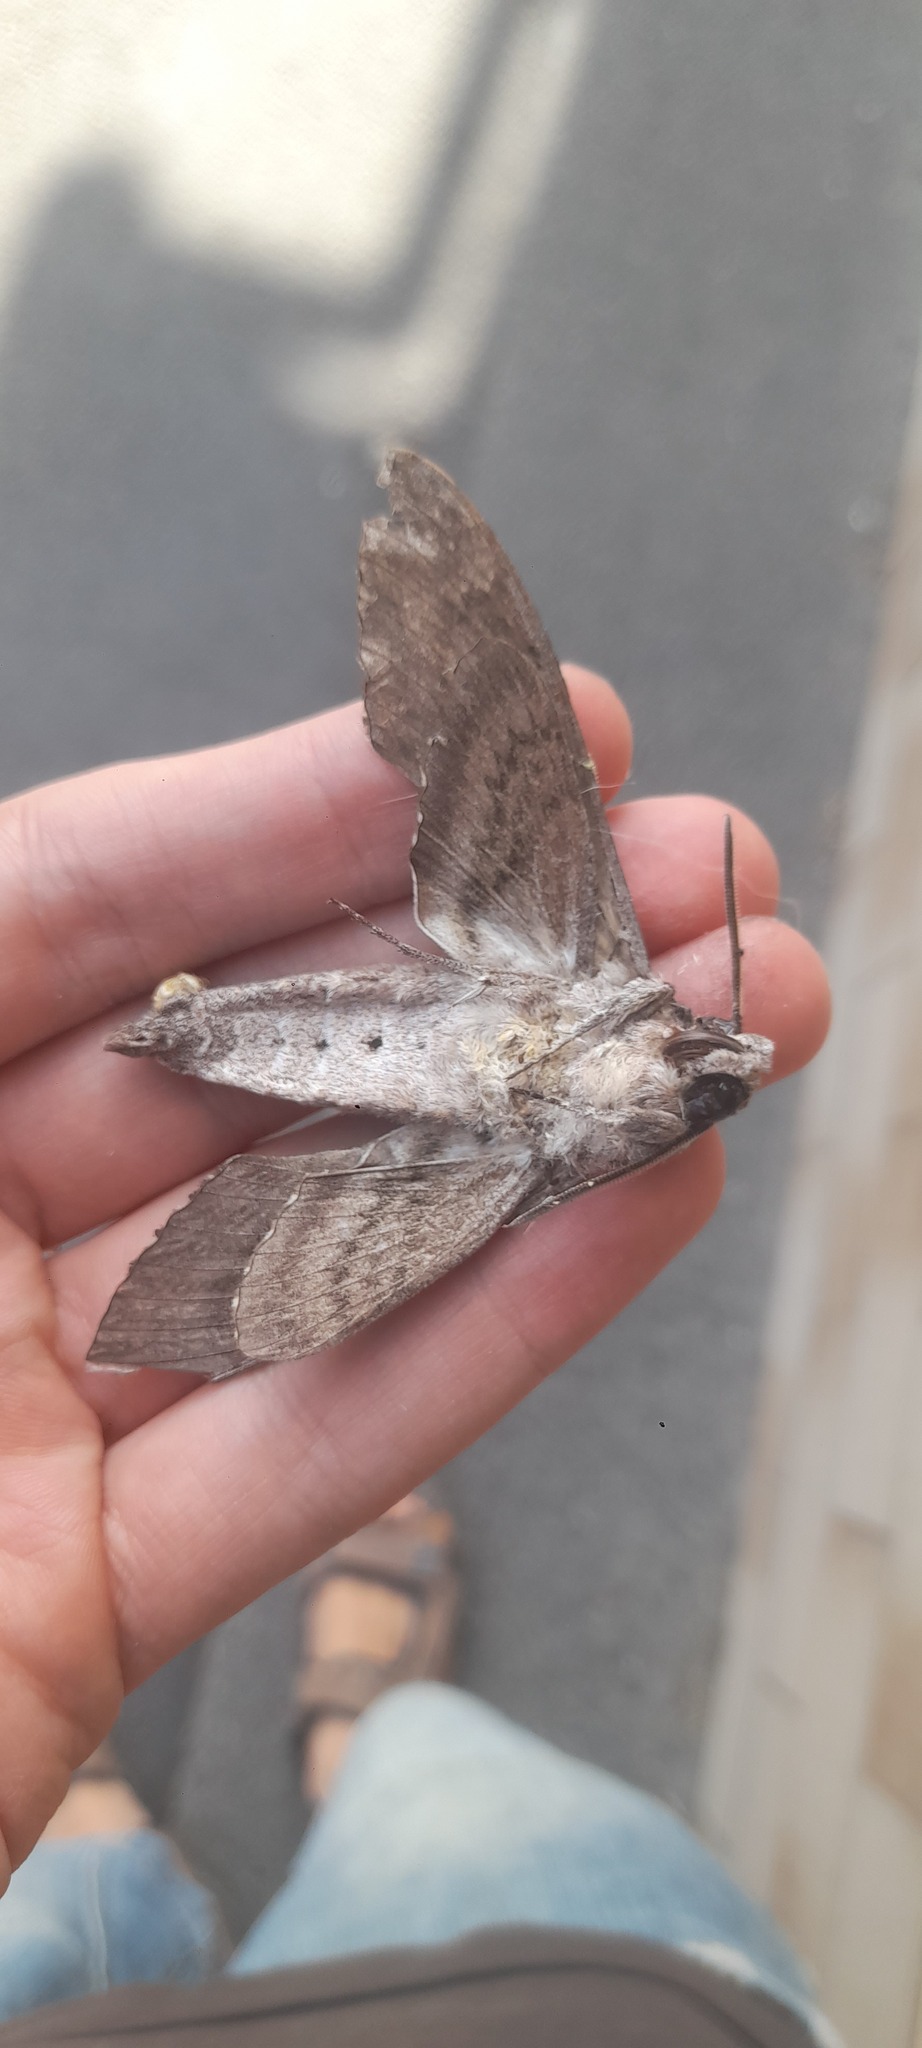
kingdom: Animalia
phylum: Arthropoda
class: Insecta
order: Lepidoptera
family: Sphingidae
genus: Agrius
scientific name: Agrius convolvuli
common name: Convolvulus hawkmoth
